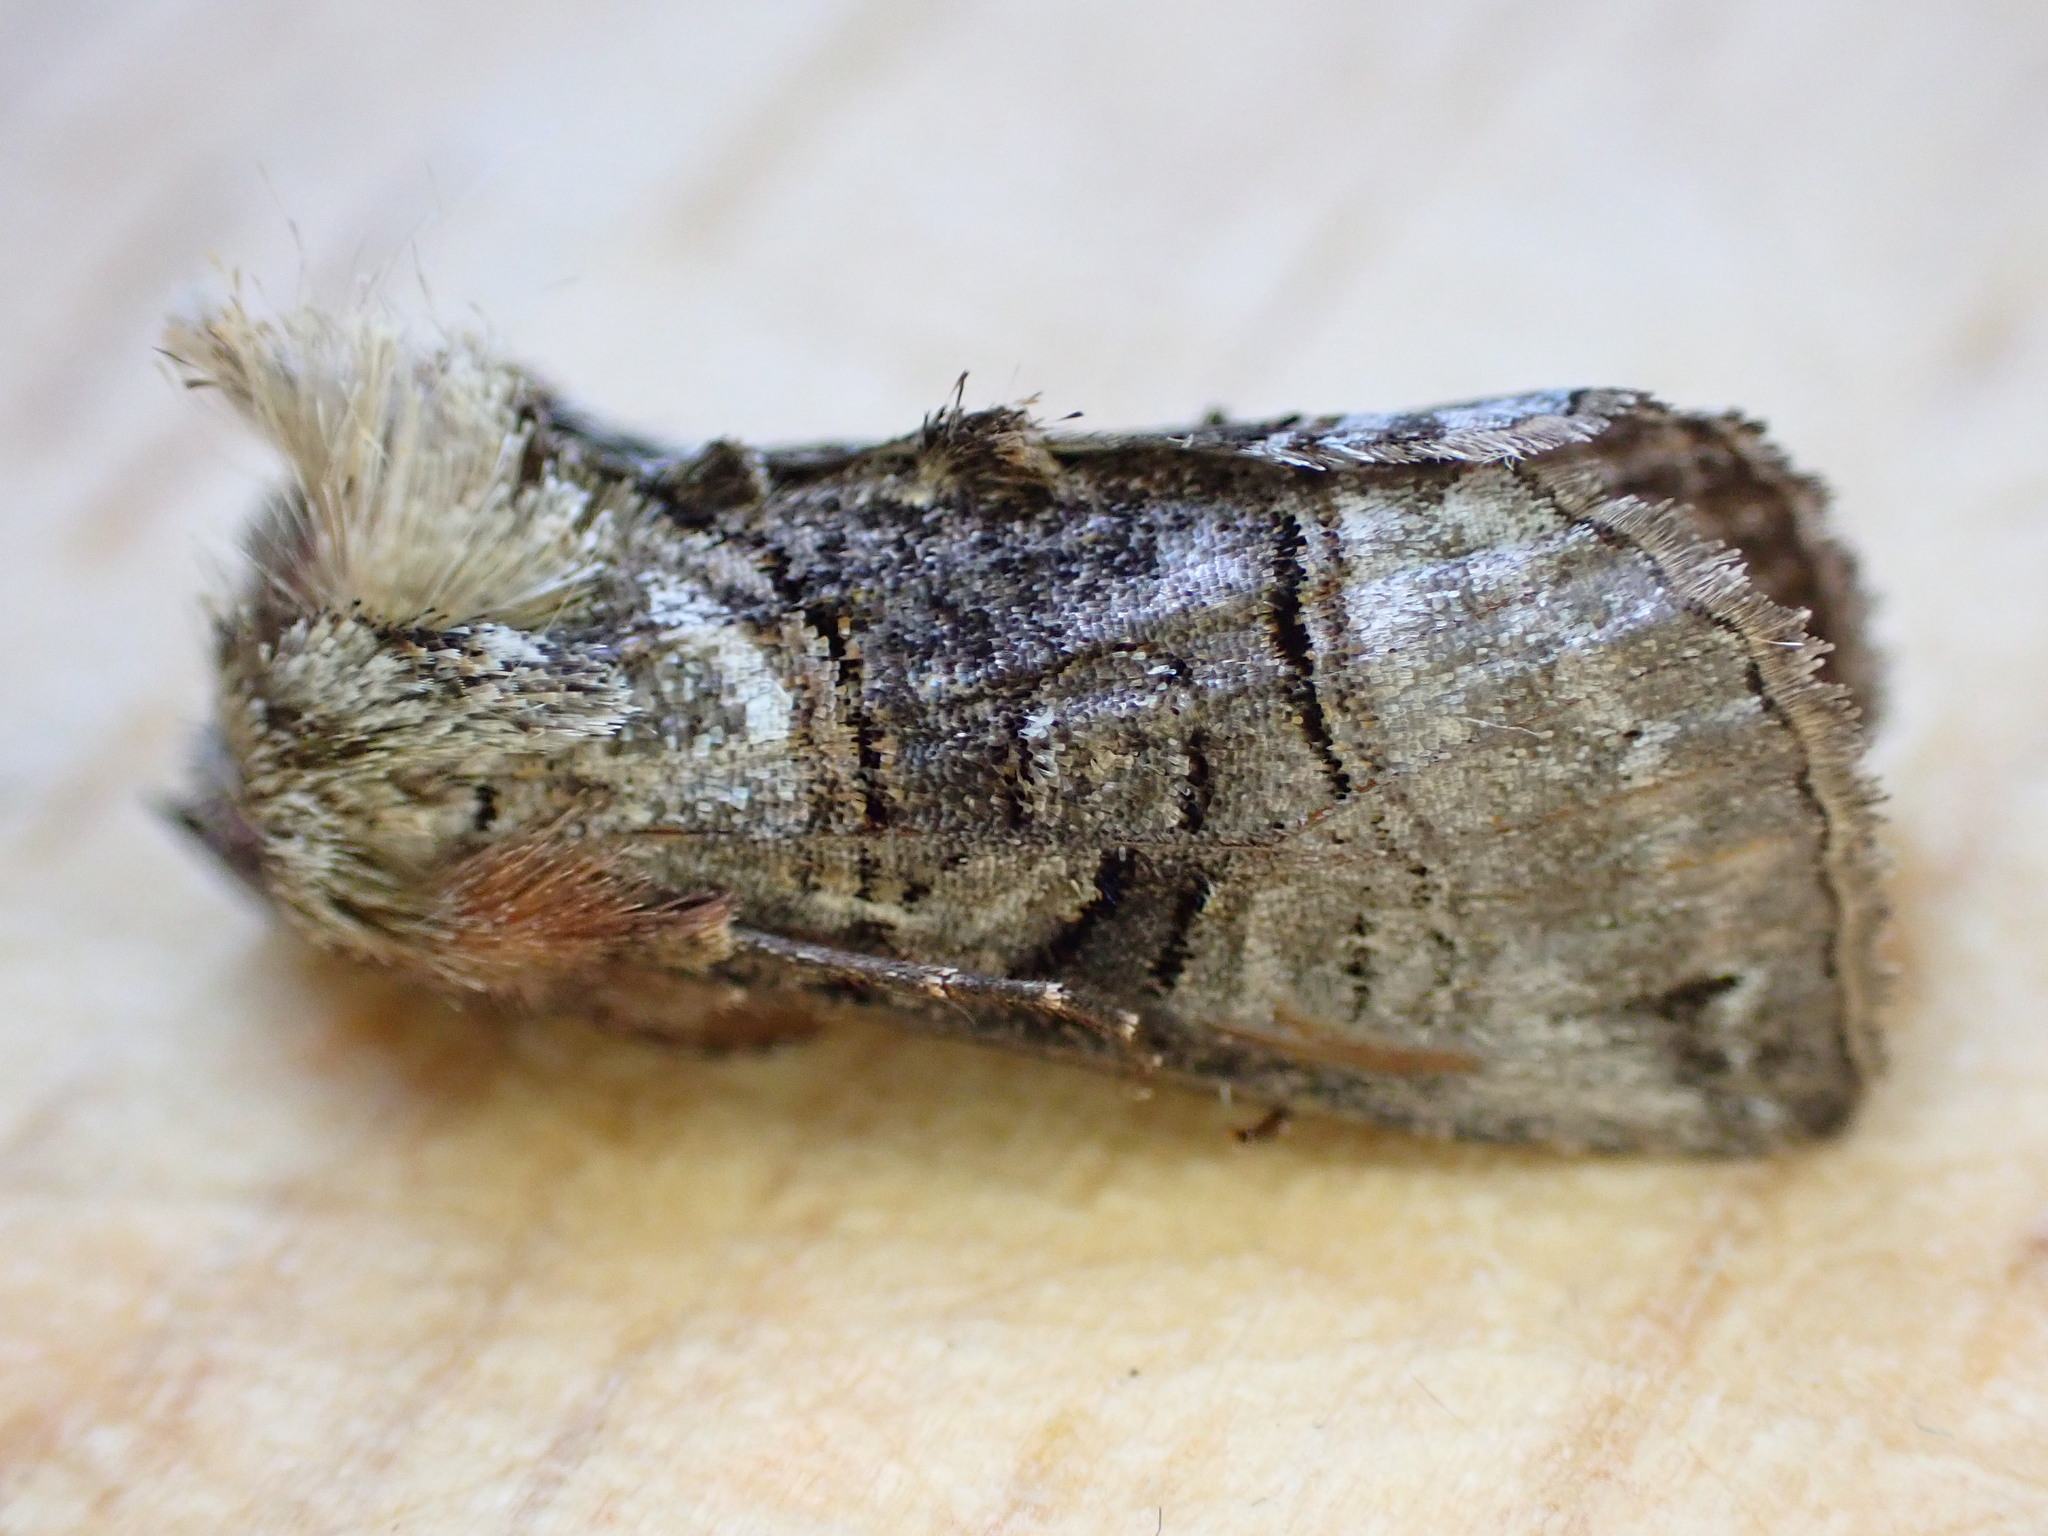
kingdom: Animalia
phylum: Arthropoda
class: Insecta
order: Lepidoptera
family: Noctuidae
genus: Abrostola
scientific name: Abrostola tripartita
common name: Spectacle
